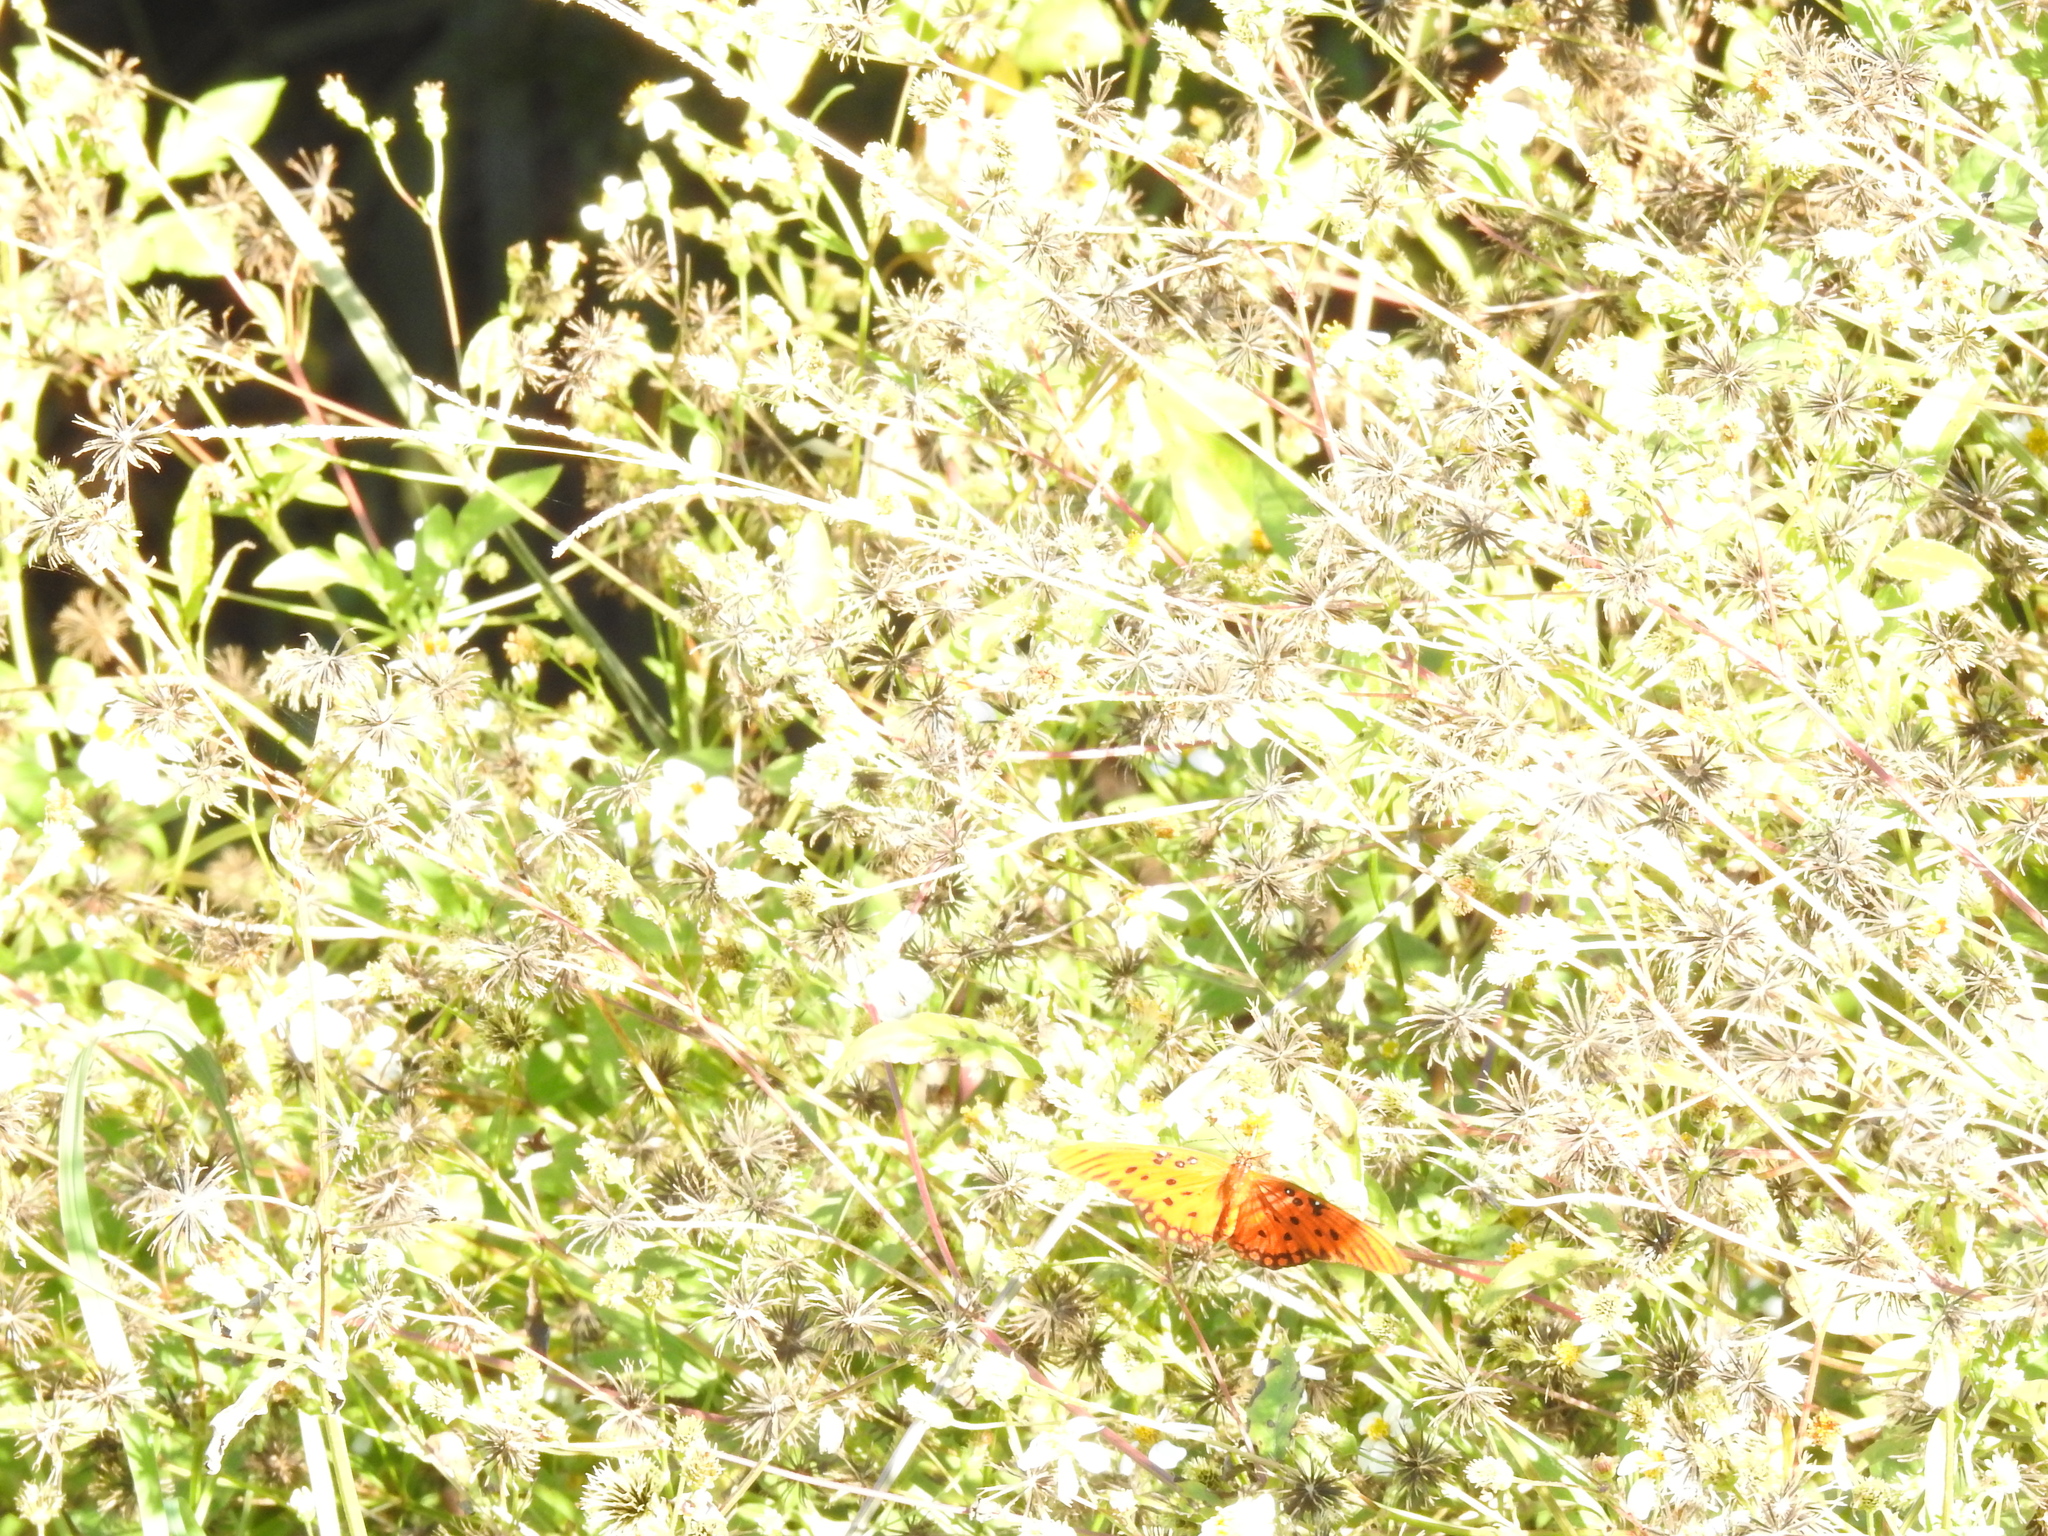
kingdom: Animalia
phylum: Arthropoda
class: Insecta
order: Lepidoptera
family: Nymphalidae
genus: Dione
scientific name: Dione vanillae
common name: Gulf fritillary
